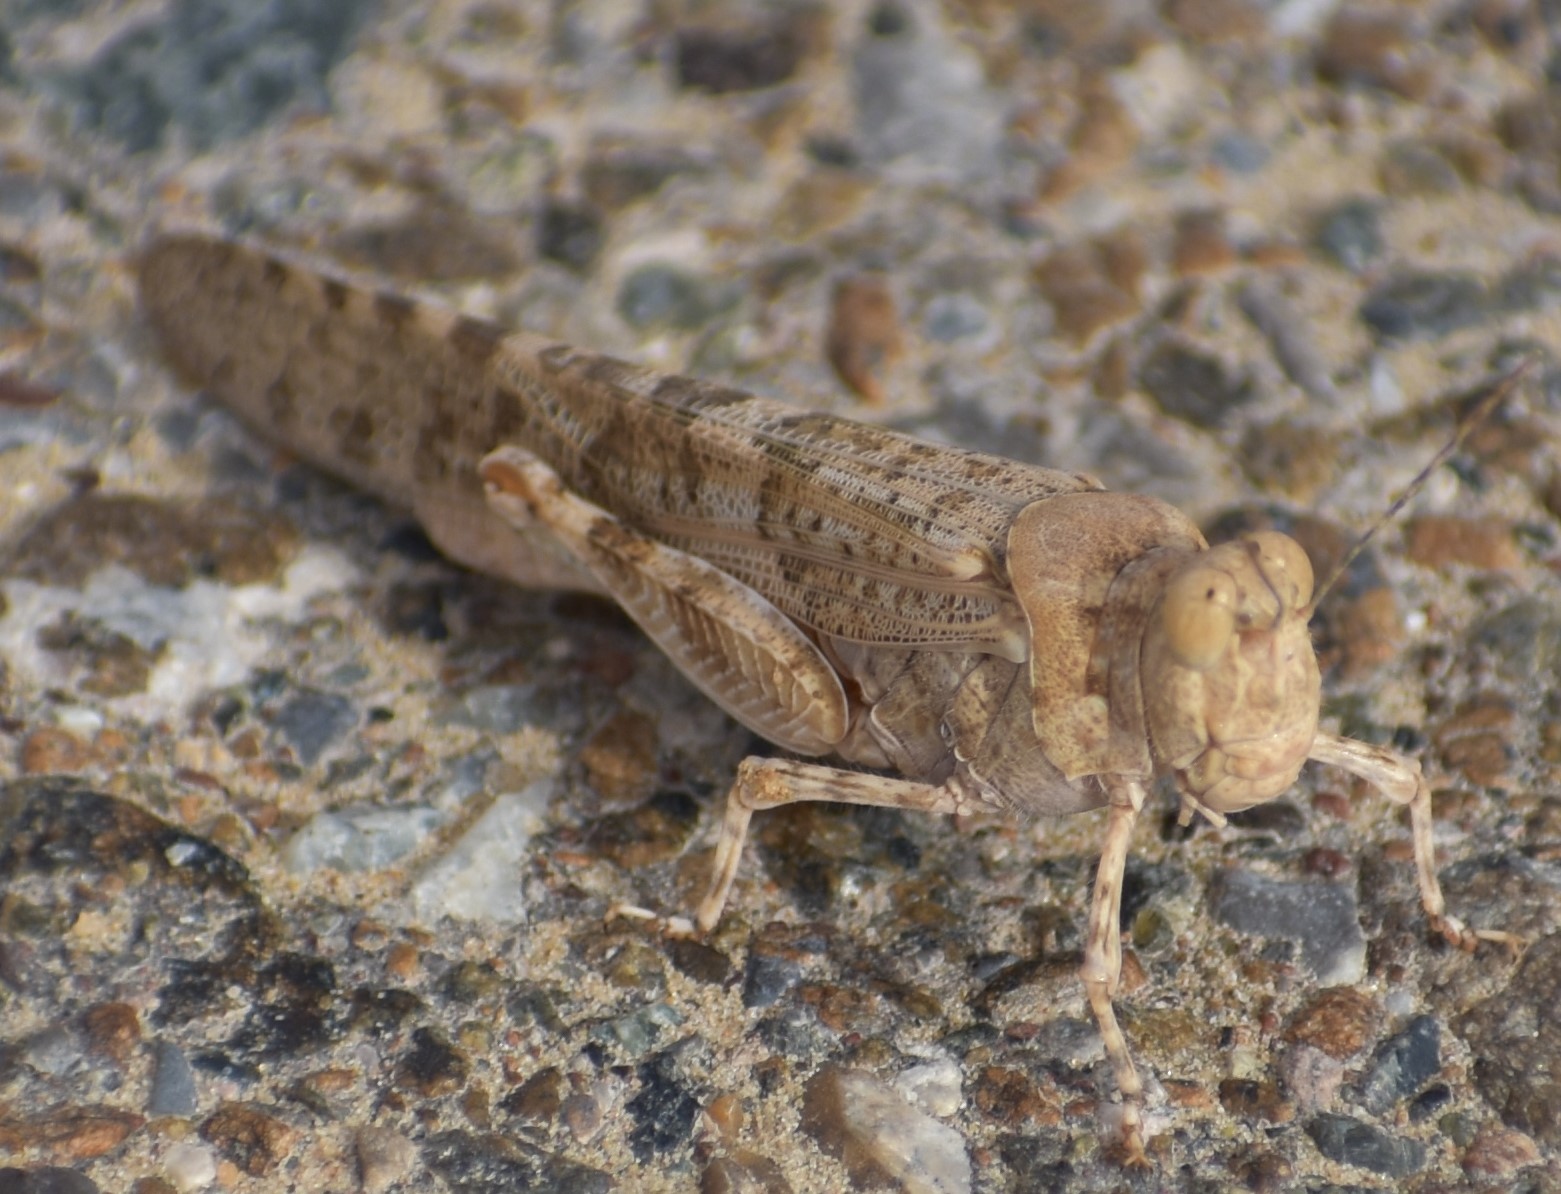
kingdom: Animalia
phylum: Arthropoda
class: Insecta
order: Orthoptera
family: Acrididae
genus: Sphingonotus
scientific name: Sphingonotus rubescens
